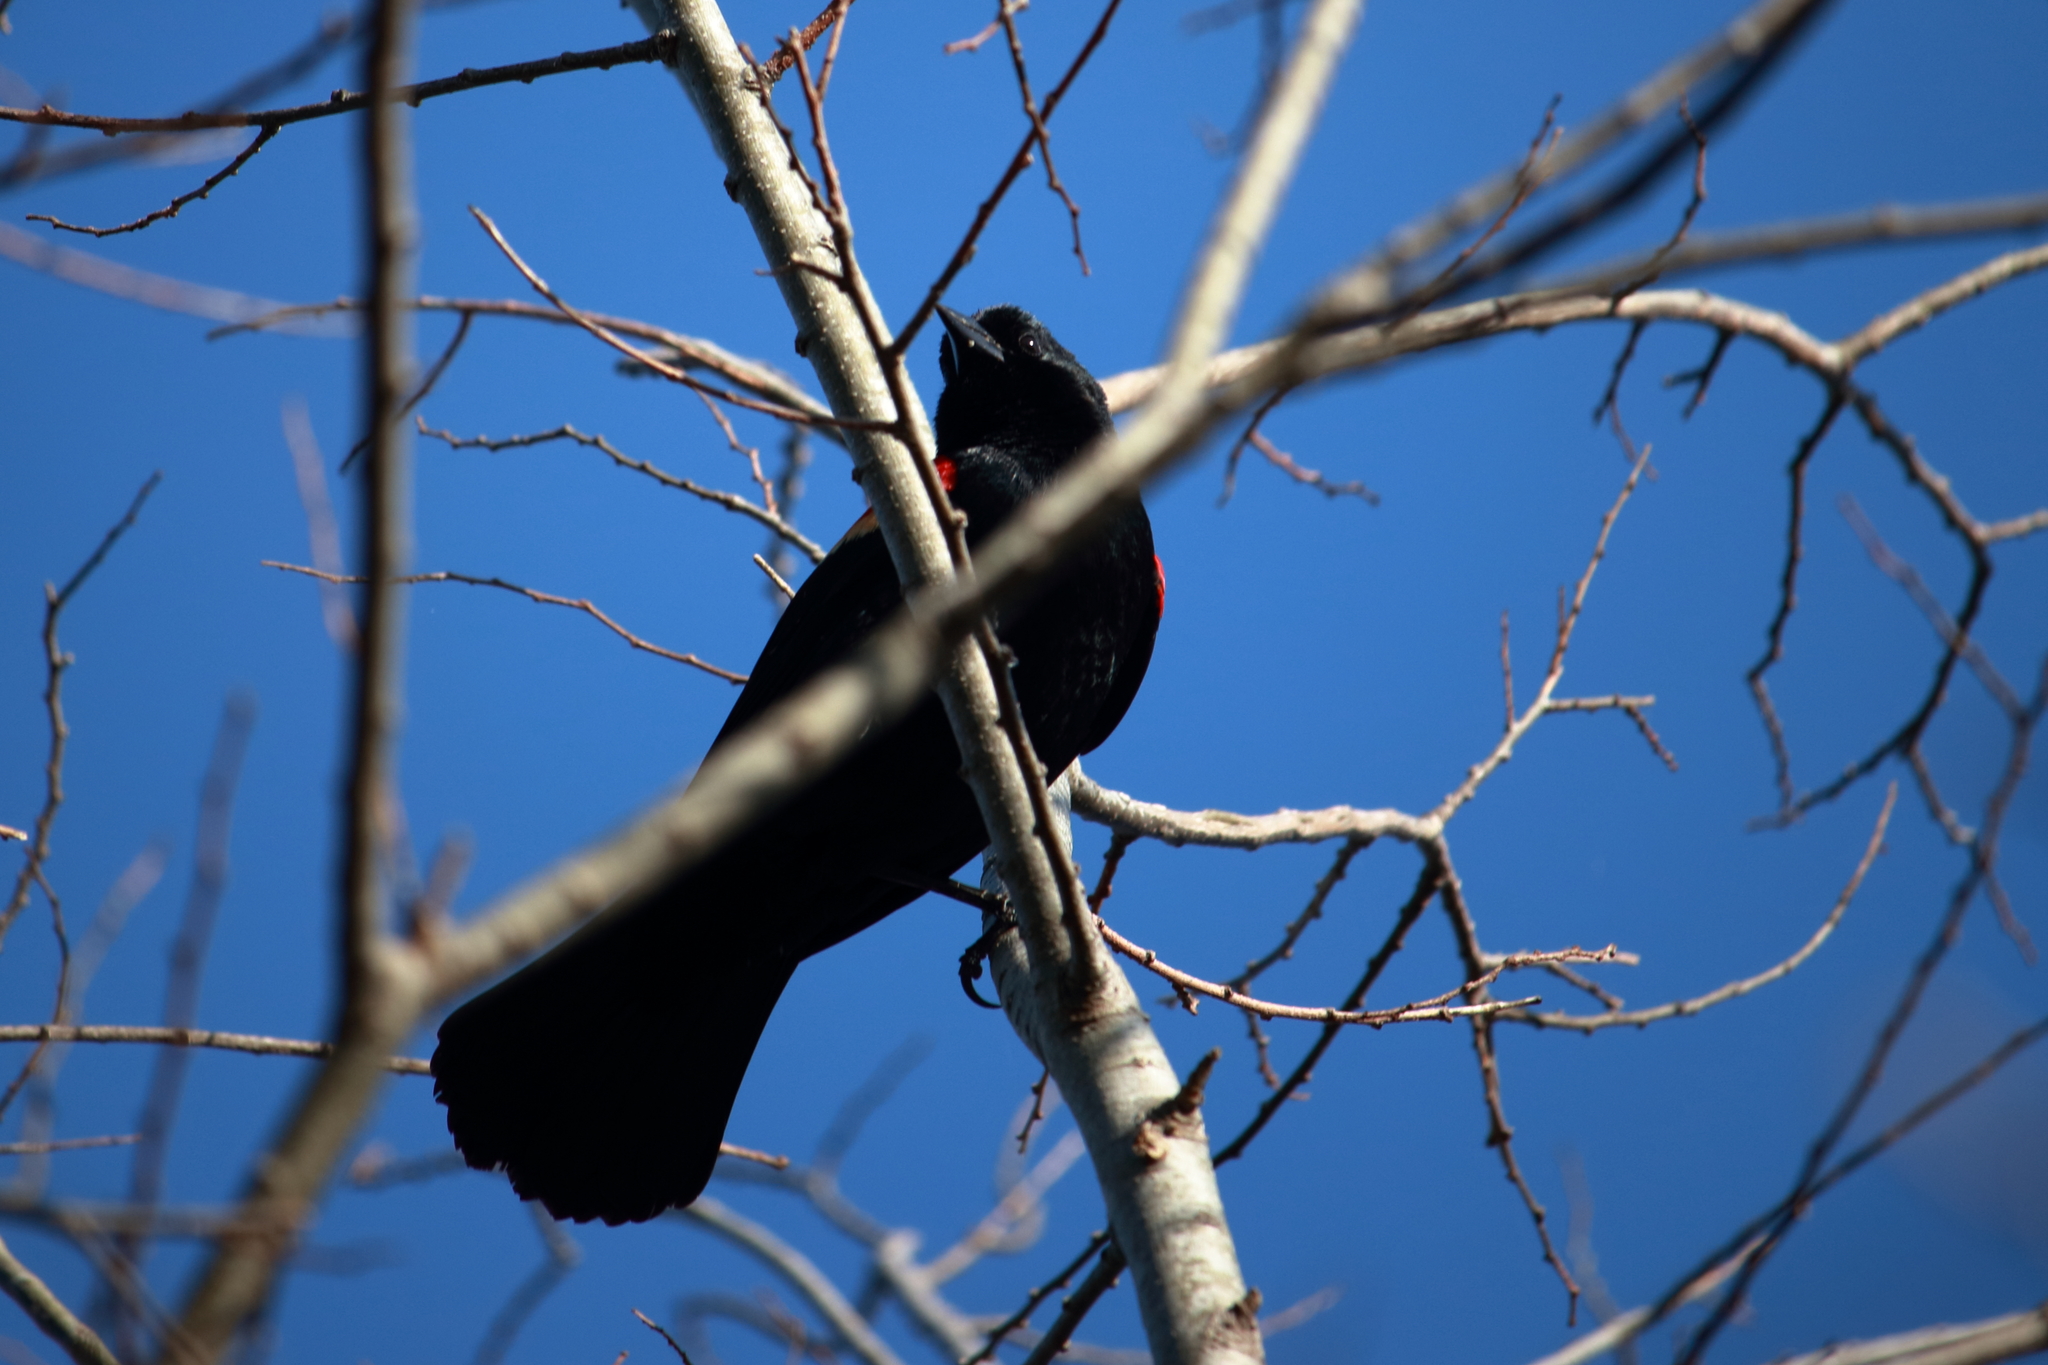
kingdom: Animalia
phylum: Chordata
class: Aves
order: Passeriformes
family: Icteridae
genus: Agelaius
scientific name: Agelaius phoeniceus
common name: Red-winged blackbird
